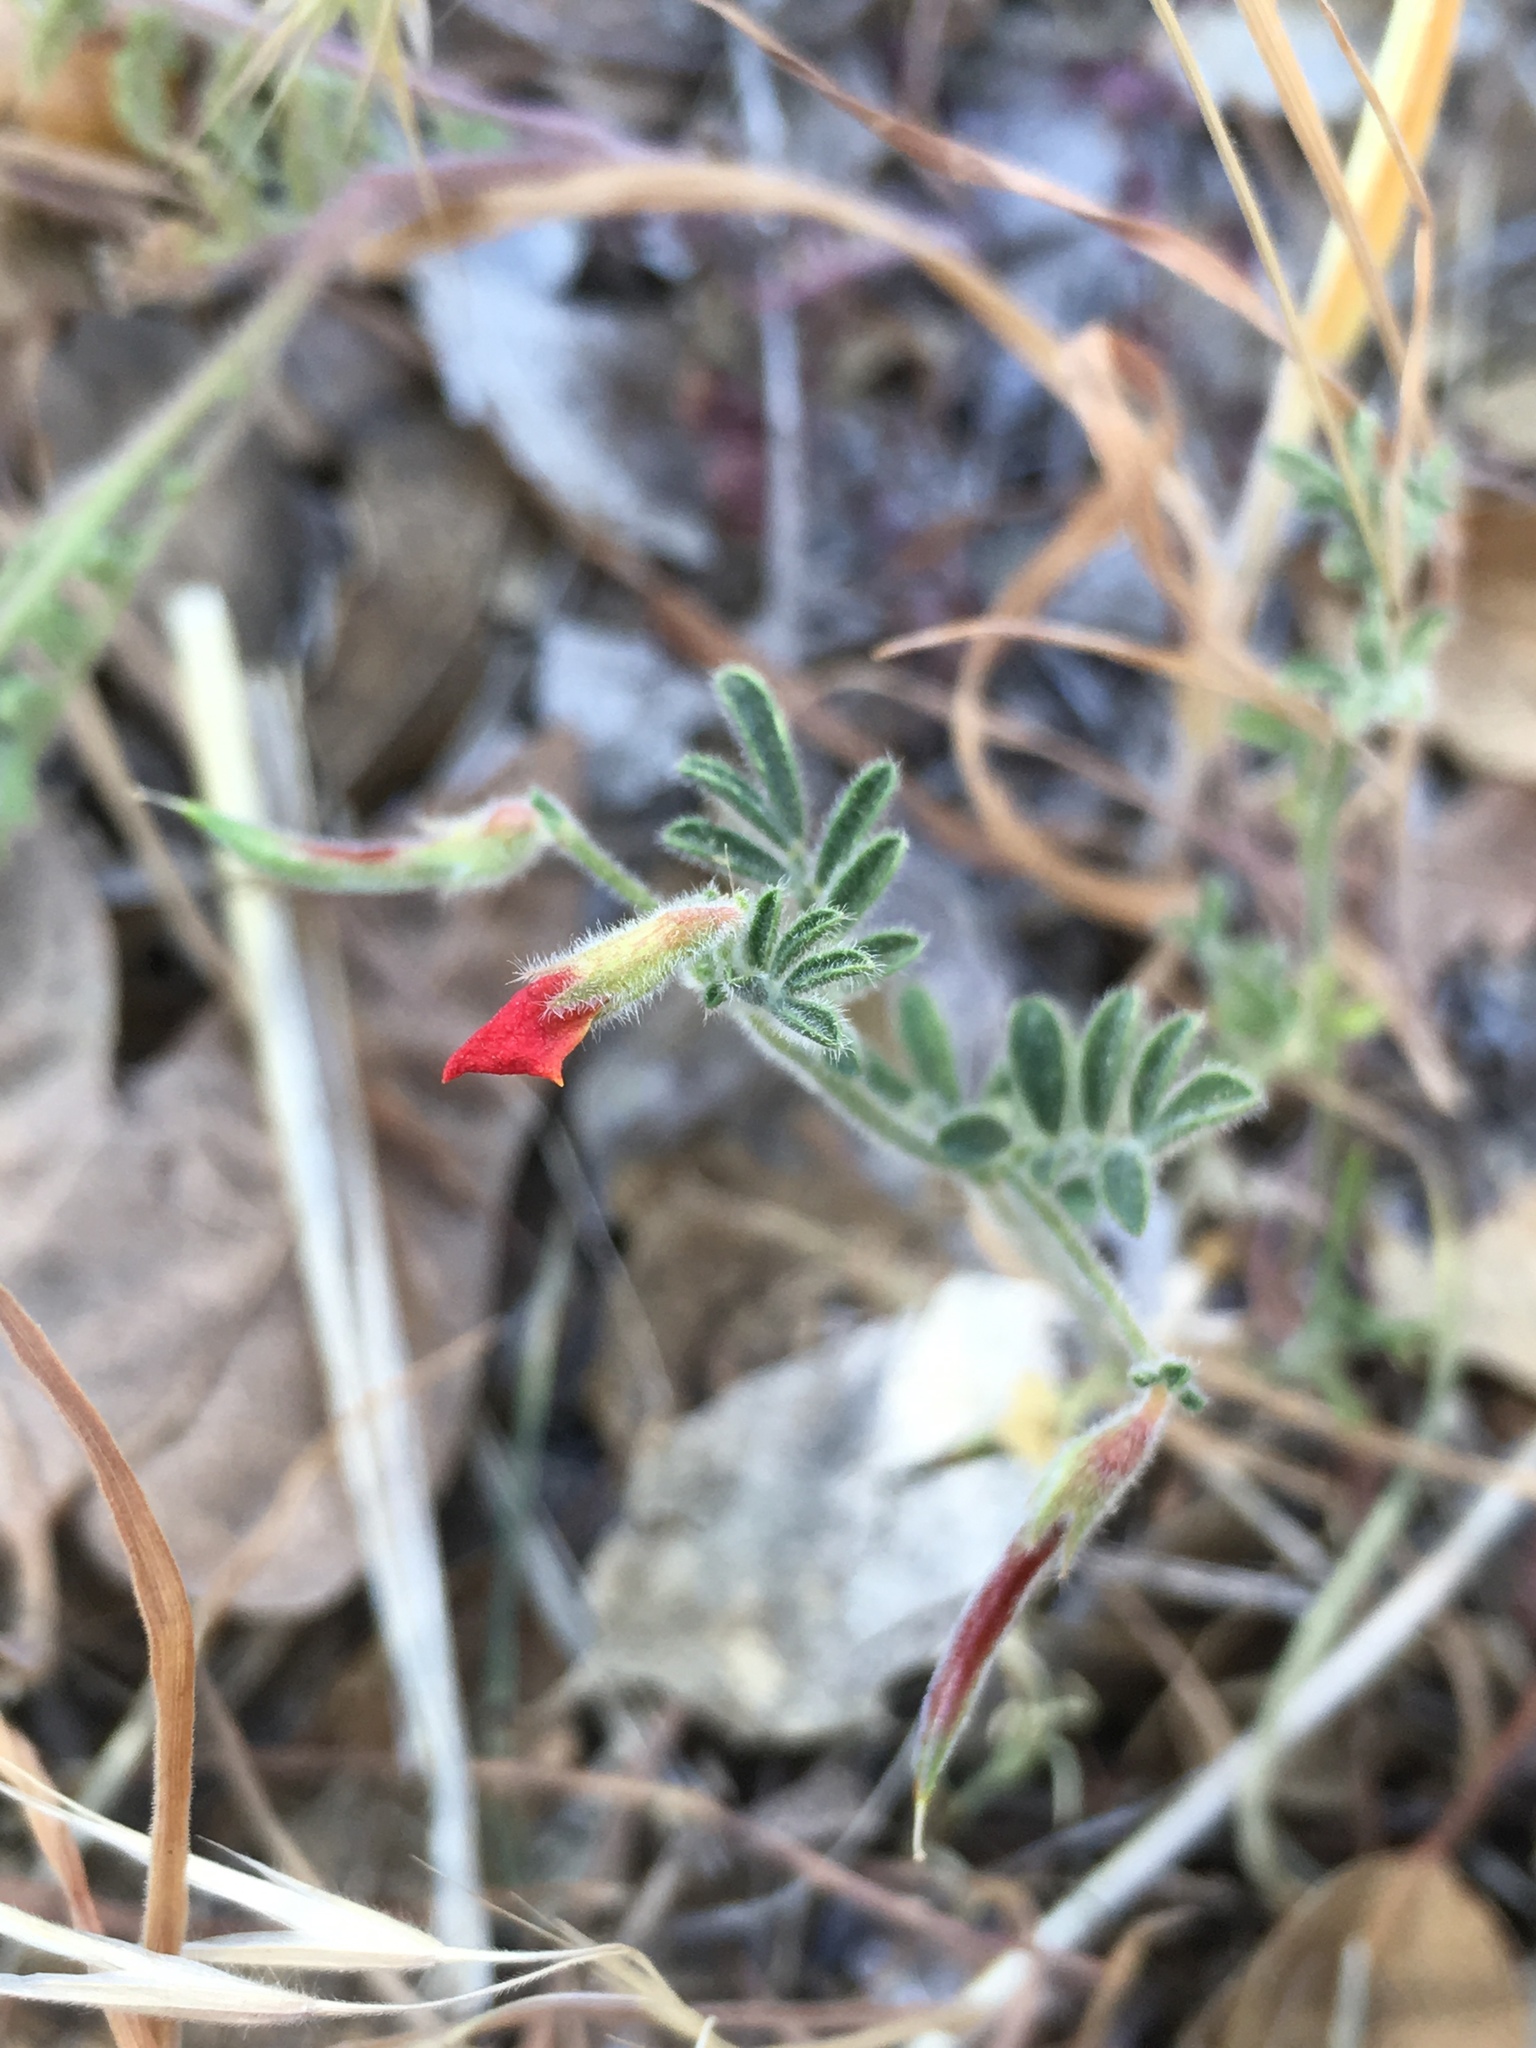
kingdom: Plantae
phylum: Tracheophyta
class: Magnoliopsida
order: Fabales
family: Fabaceae
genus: Acmispon
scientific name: Acmispon strigosus
